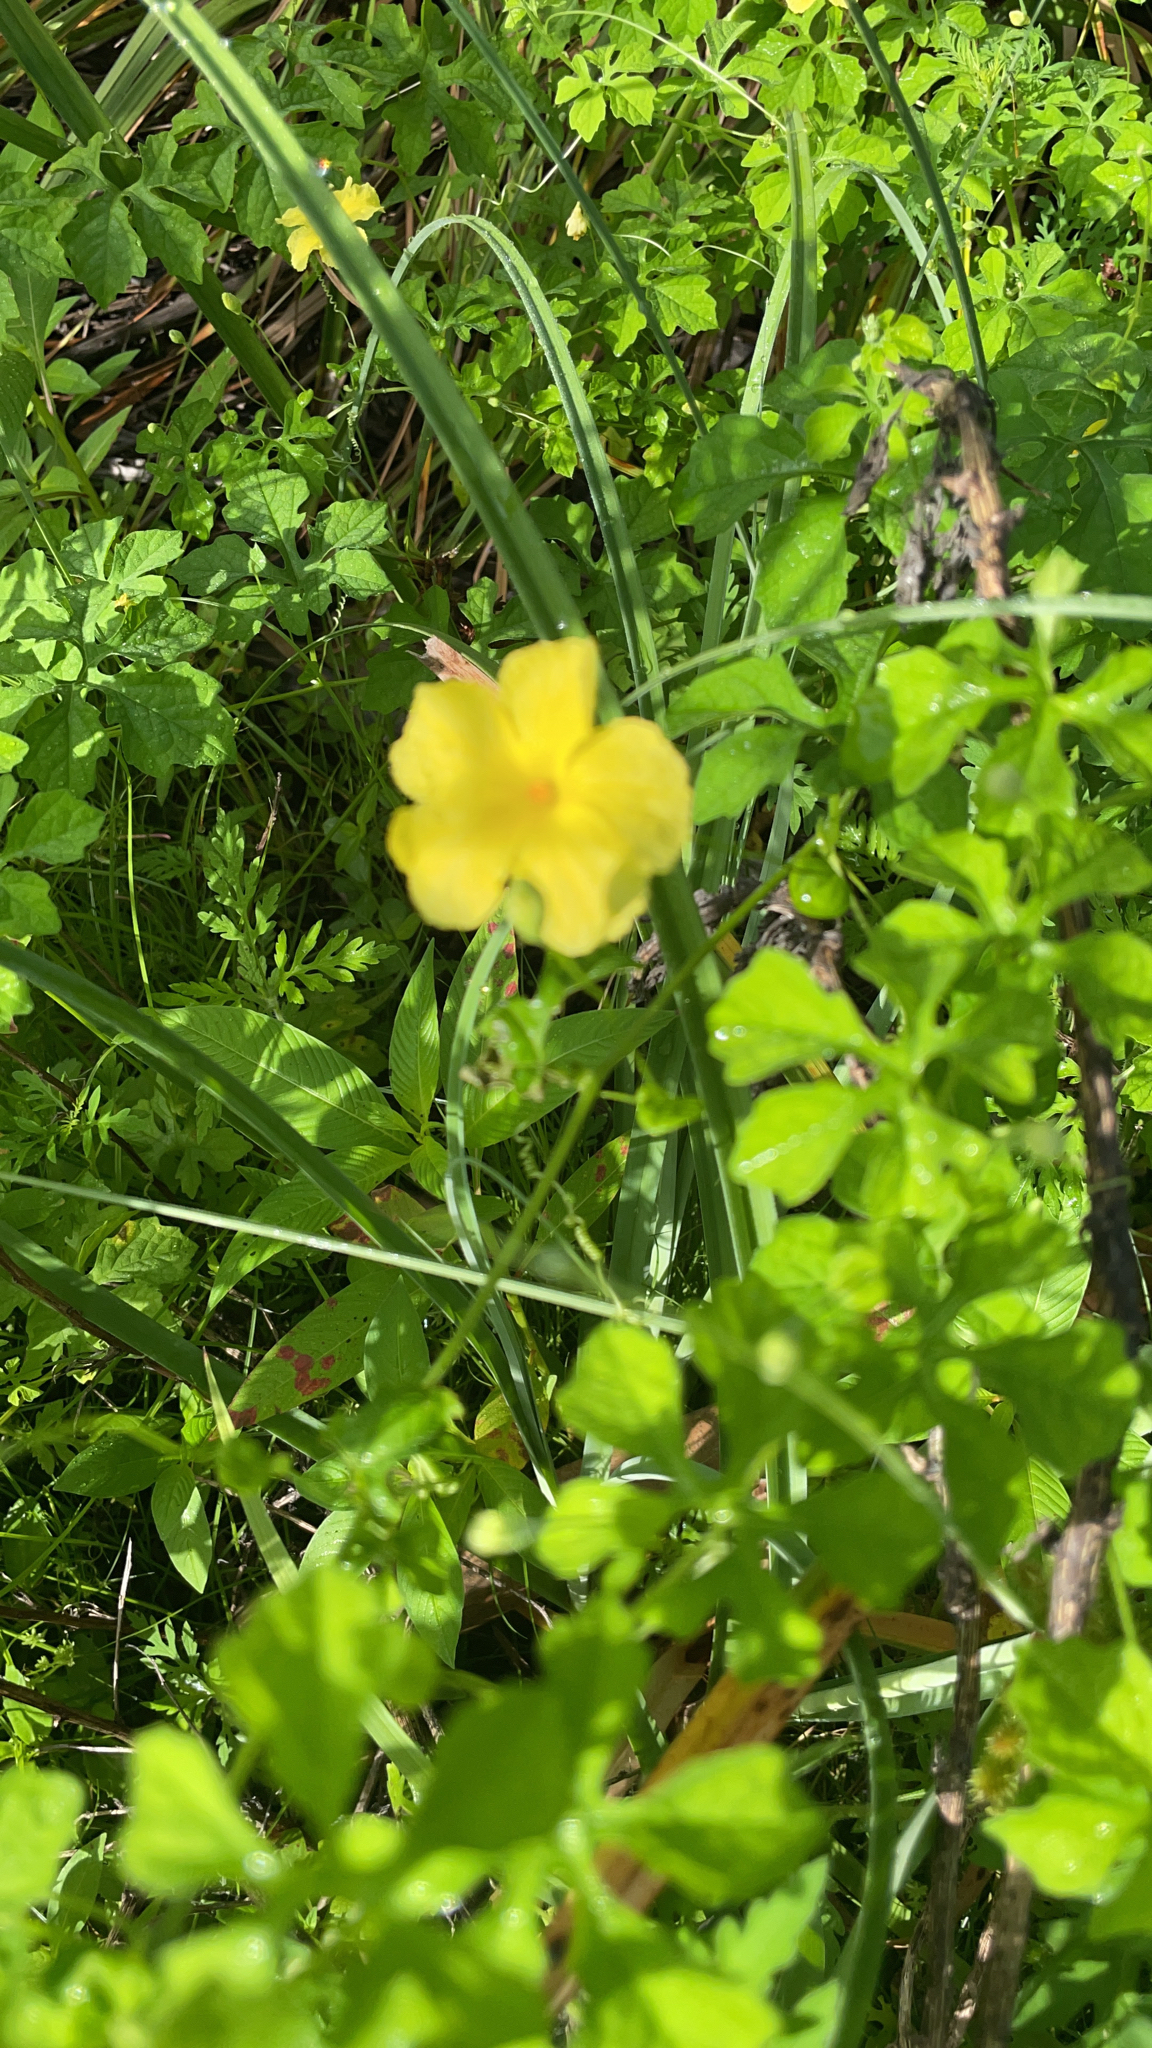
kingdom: Plantae
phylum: Tracheophyta
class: Magnoliopsida
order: Cucurbitales
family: Cucurbitaceae
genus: Momordica
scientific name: Momordica charantia
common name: Balsampear
